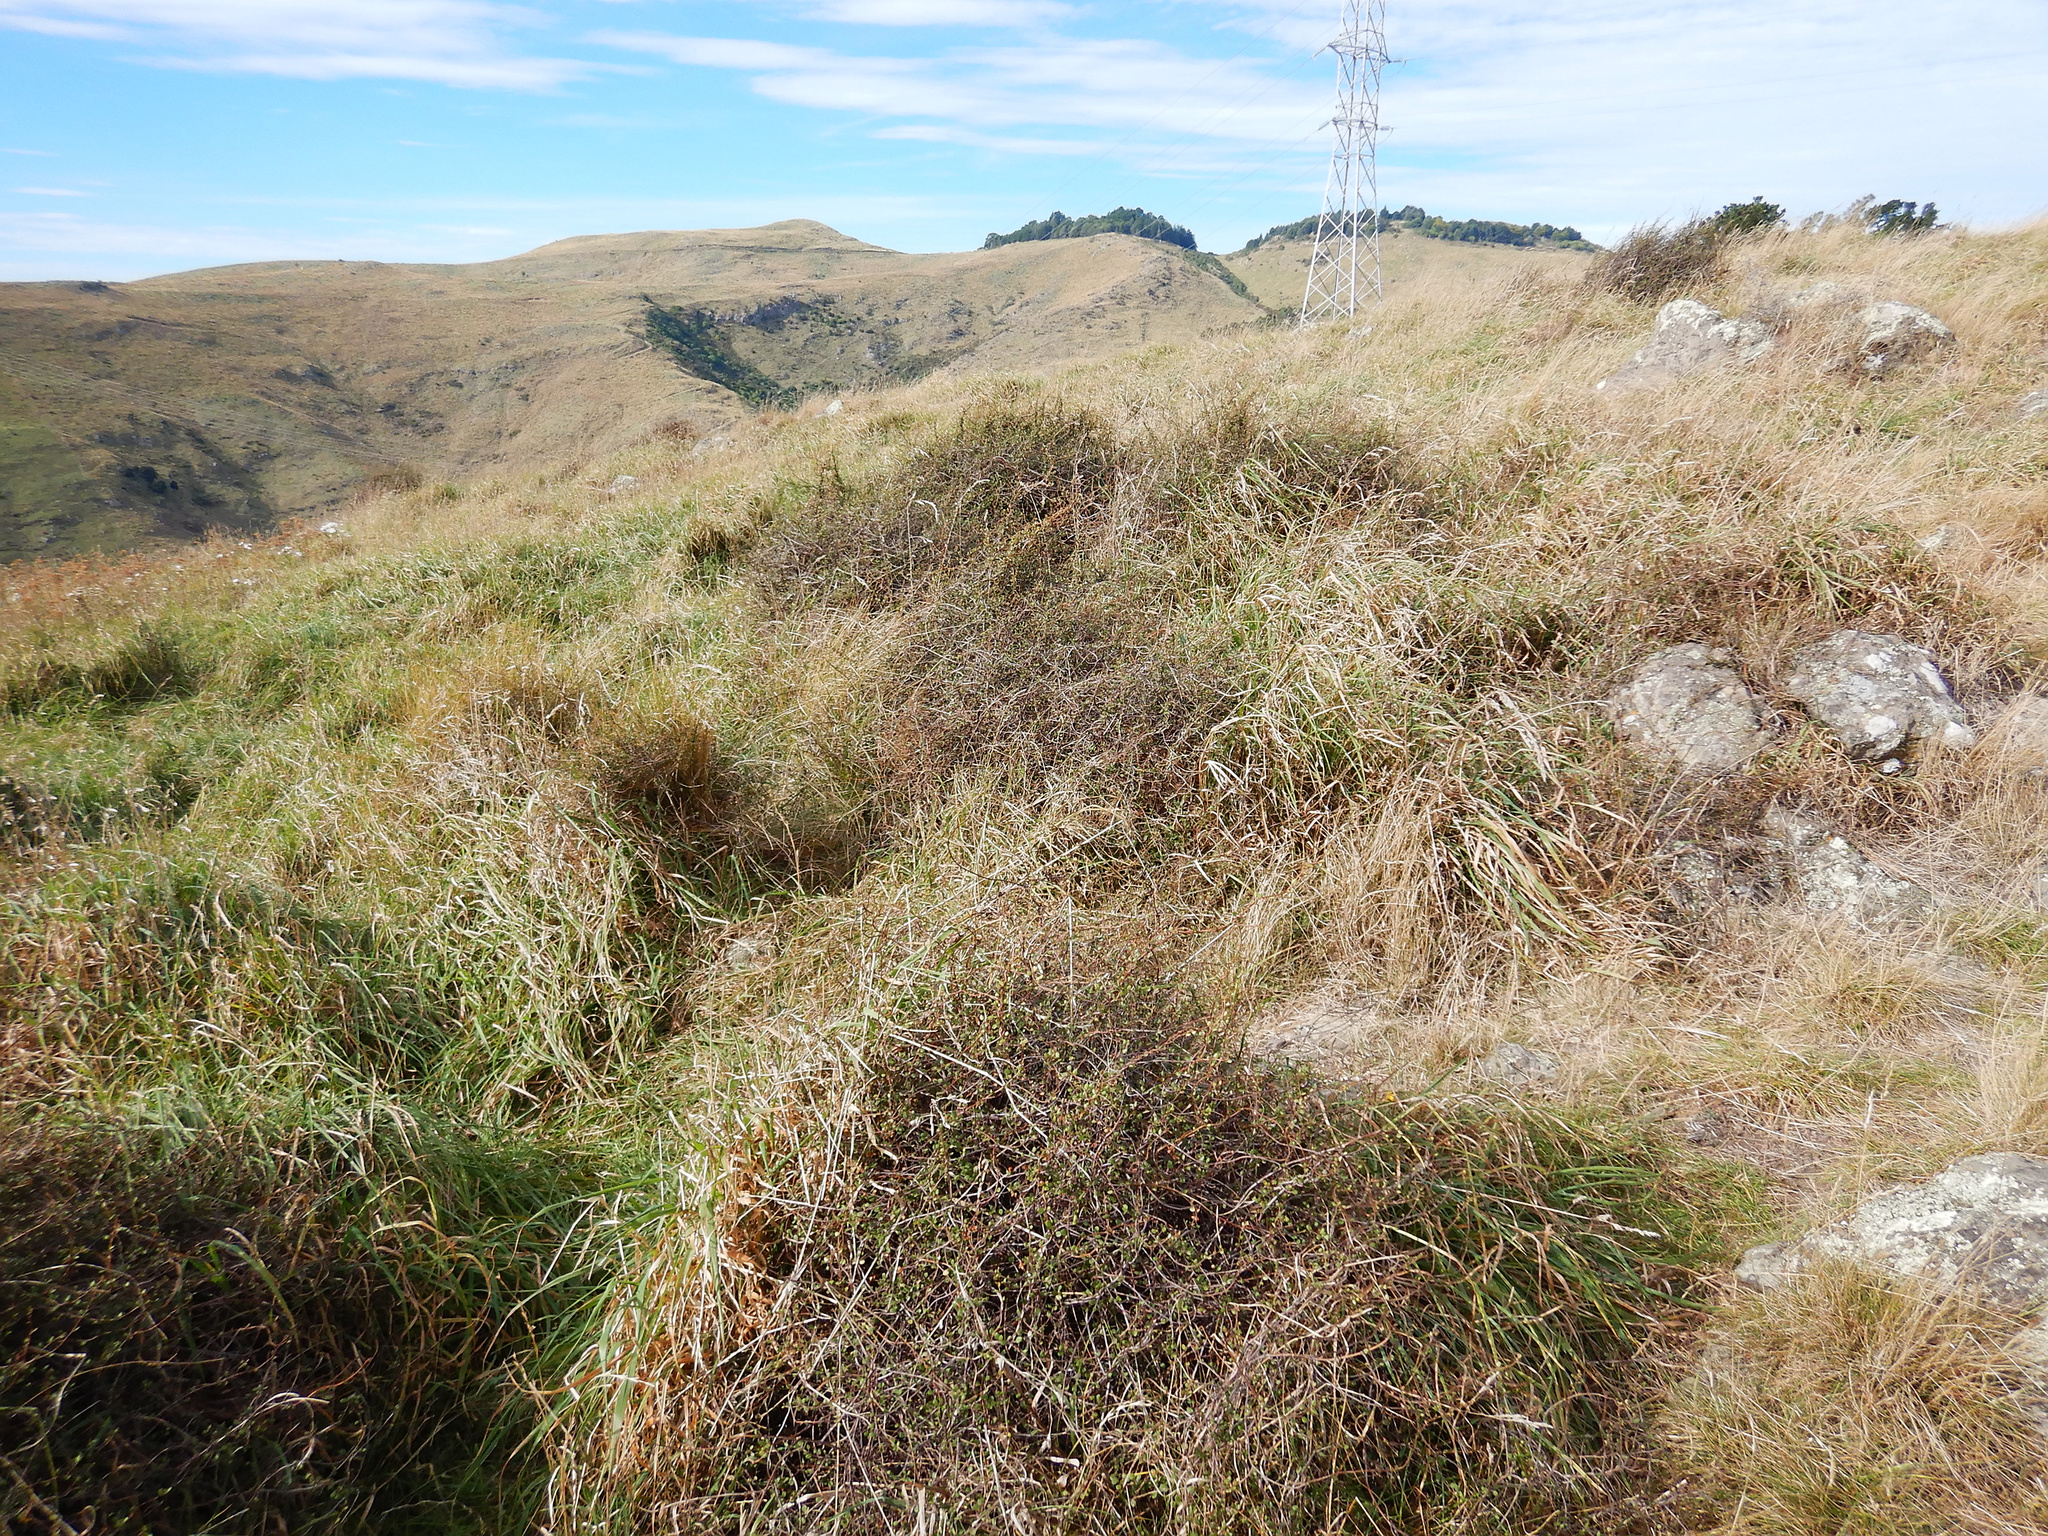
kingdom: Plantae
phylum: Tracheophyta
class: Magnoliopsida
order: Caryophyllales
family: Polygonaceae
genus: Muehlenbeckia
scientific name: Muehlenbeckia complexa
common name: Wireplant
